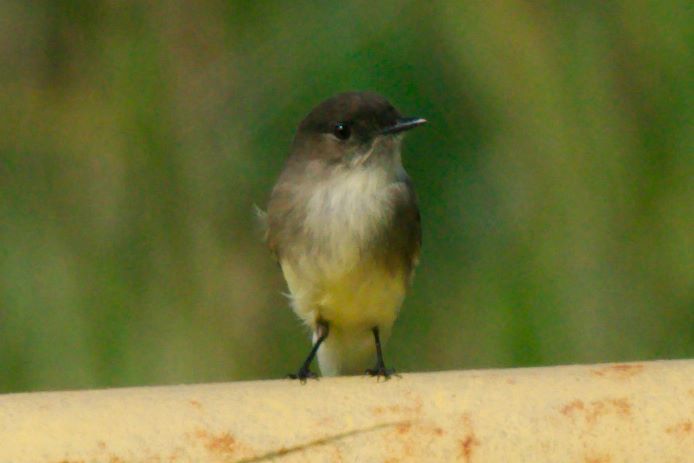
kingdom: Animalia
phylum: Chordata
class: Aves
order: Passeriformes
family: Tyrannidae
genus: Sayornis
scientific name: Sayornis phoebe
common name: Eastern phoebe
